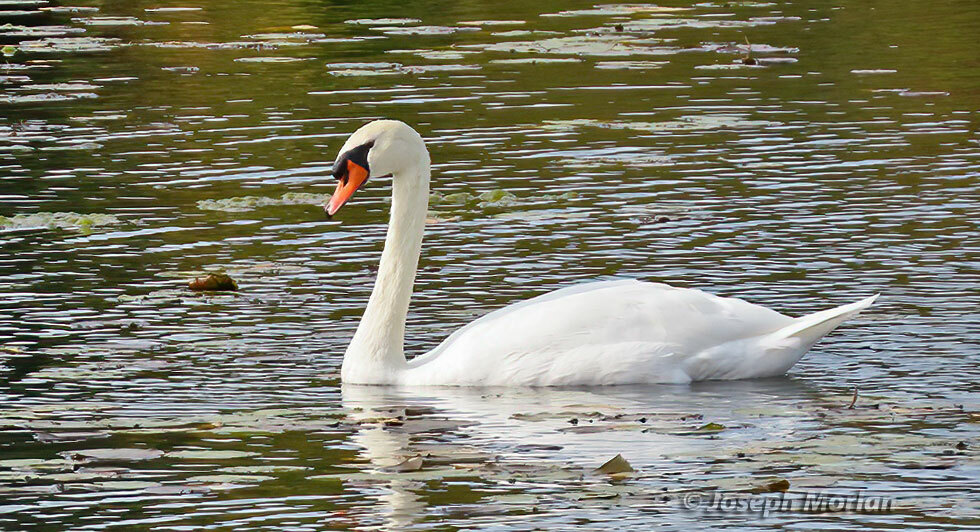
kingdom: Animalia
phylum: Chordata
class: Aves
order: Anseriformes
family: Anatidae
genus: Cygnus
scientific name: Cygnus olor
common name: Mute swan
